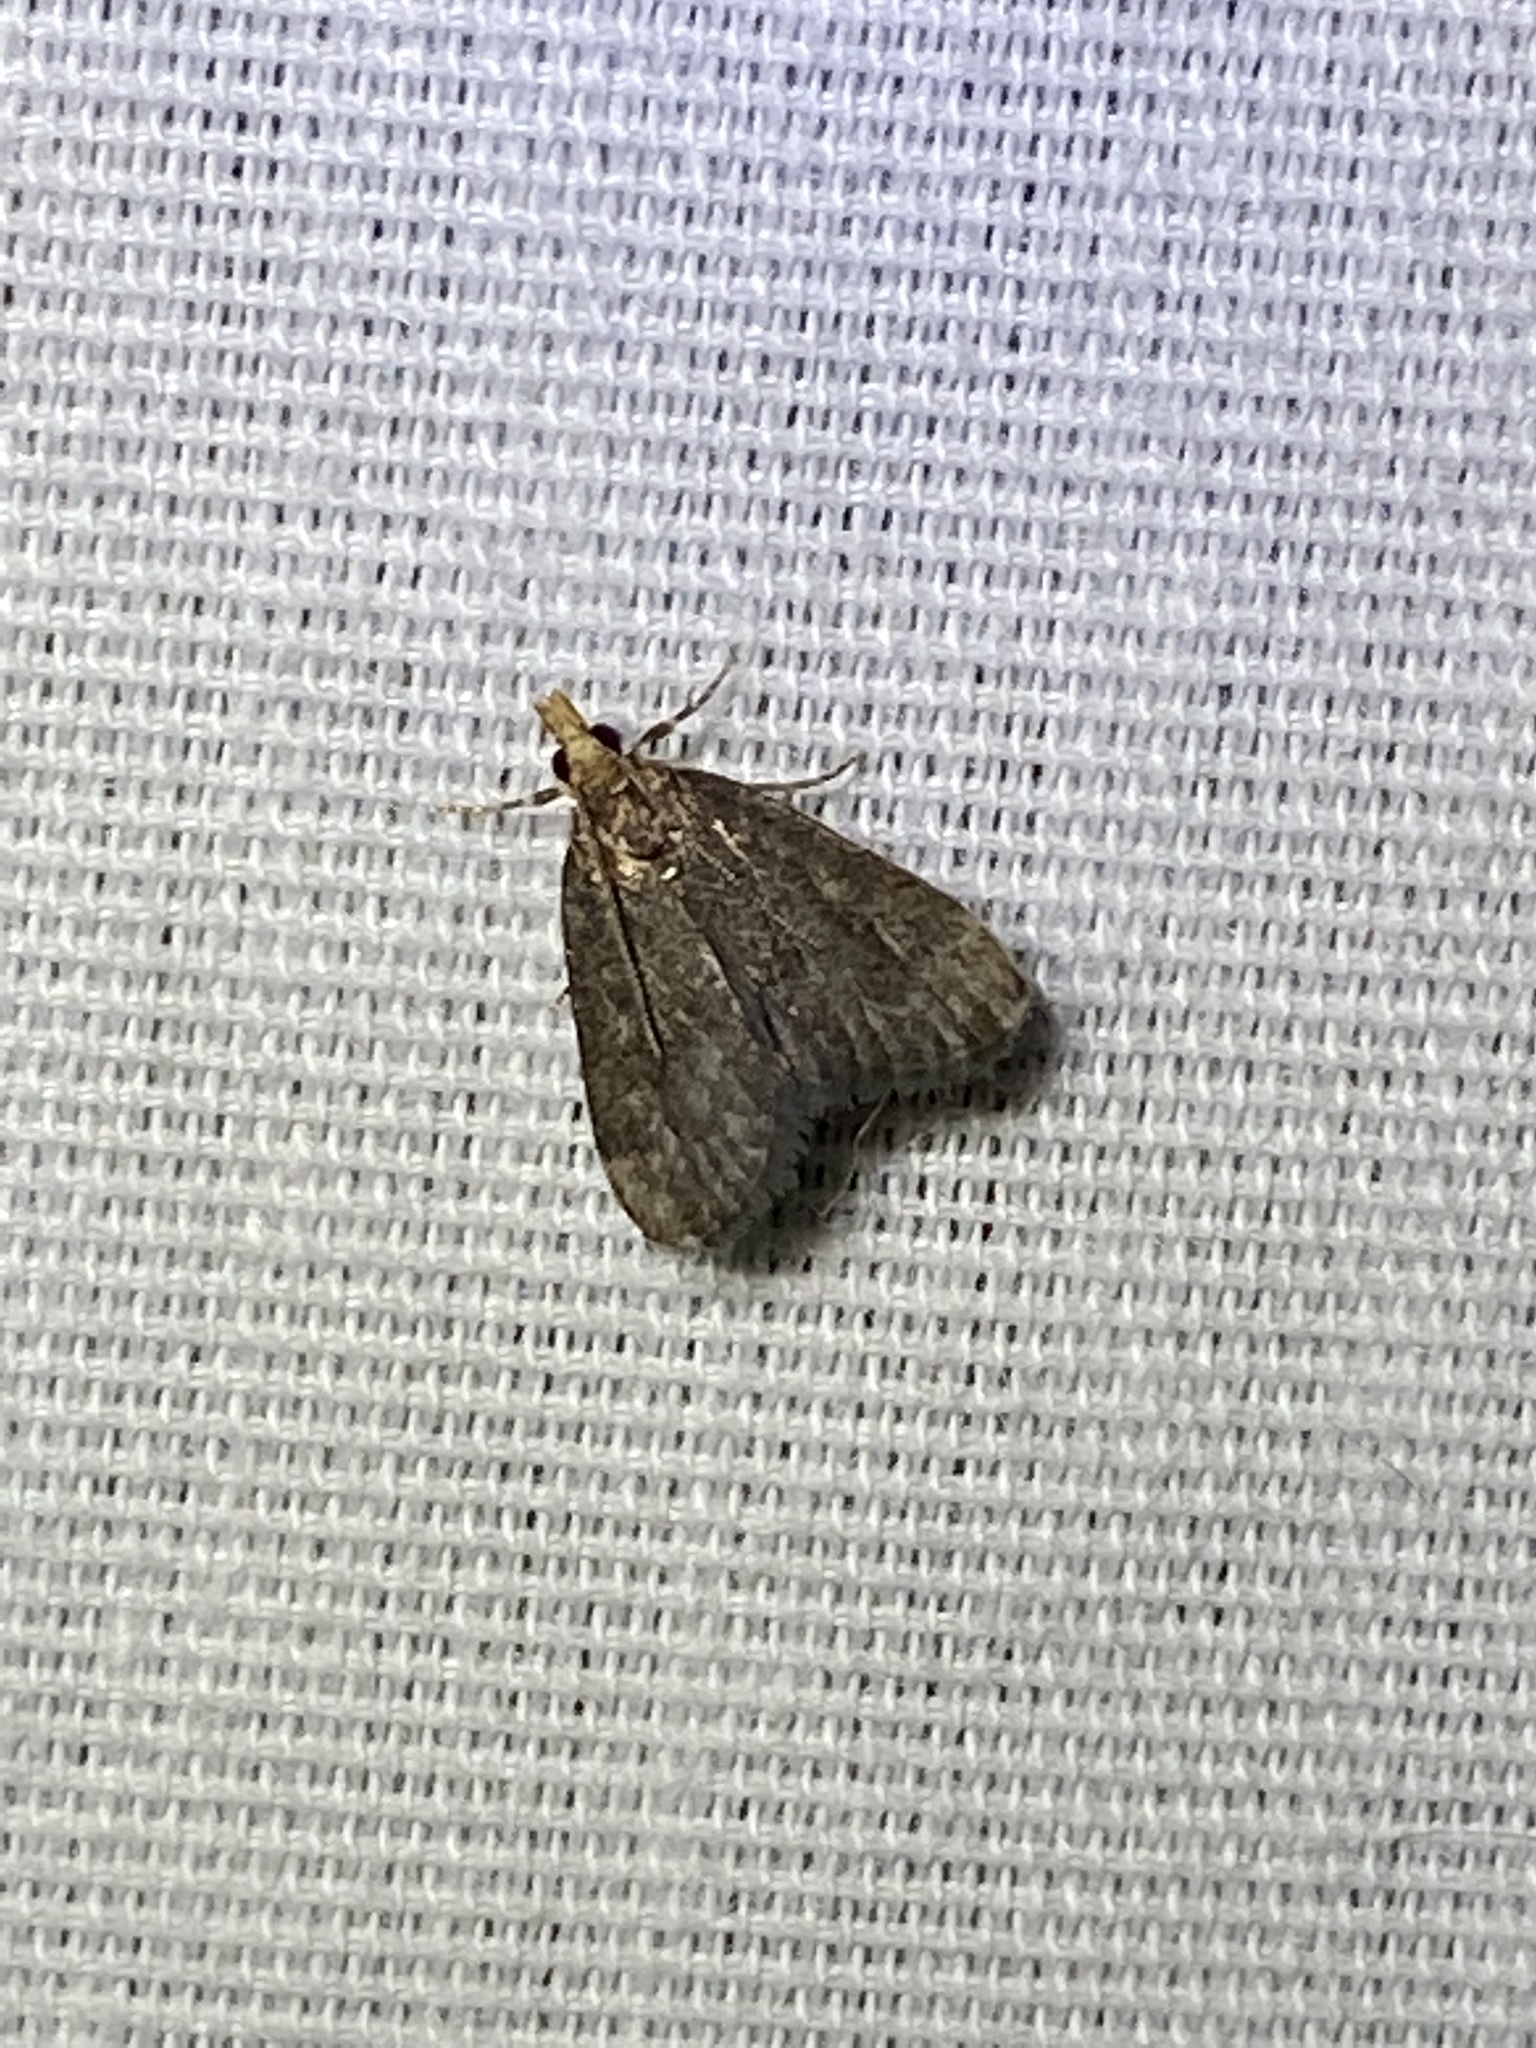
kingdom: Animalia
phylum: Arthropoda
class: Insecta
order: Lepidoptera
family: Crambidae
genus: Pyrausta
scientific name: Pyrausta merrickalis
